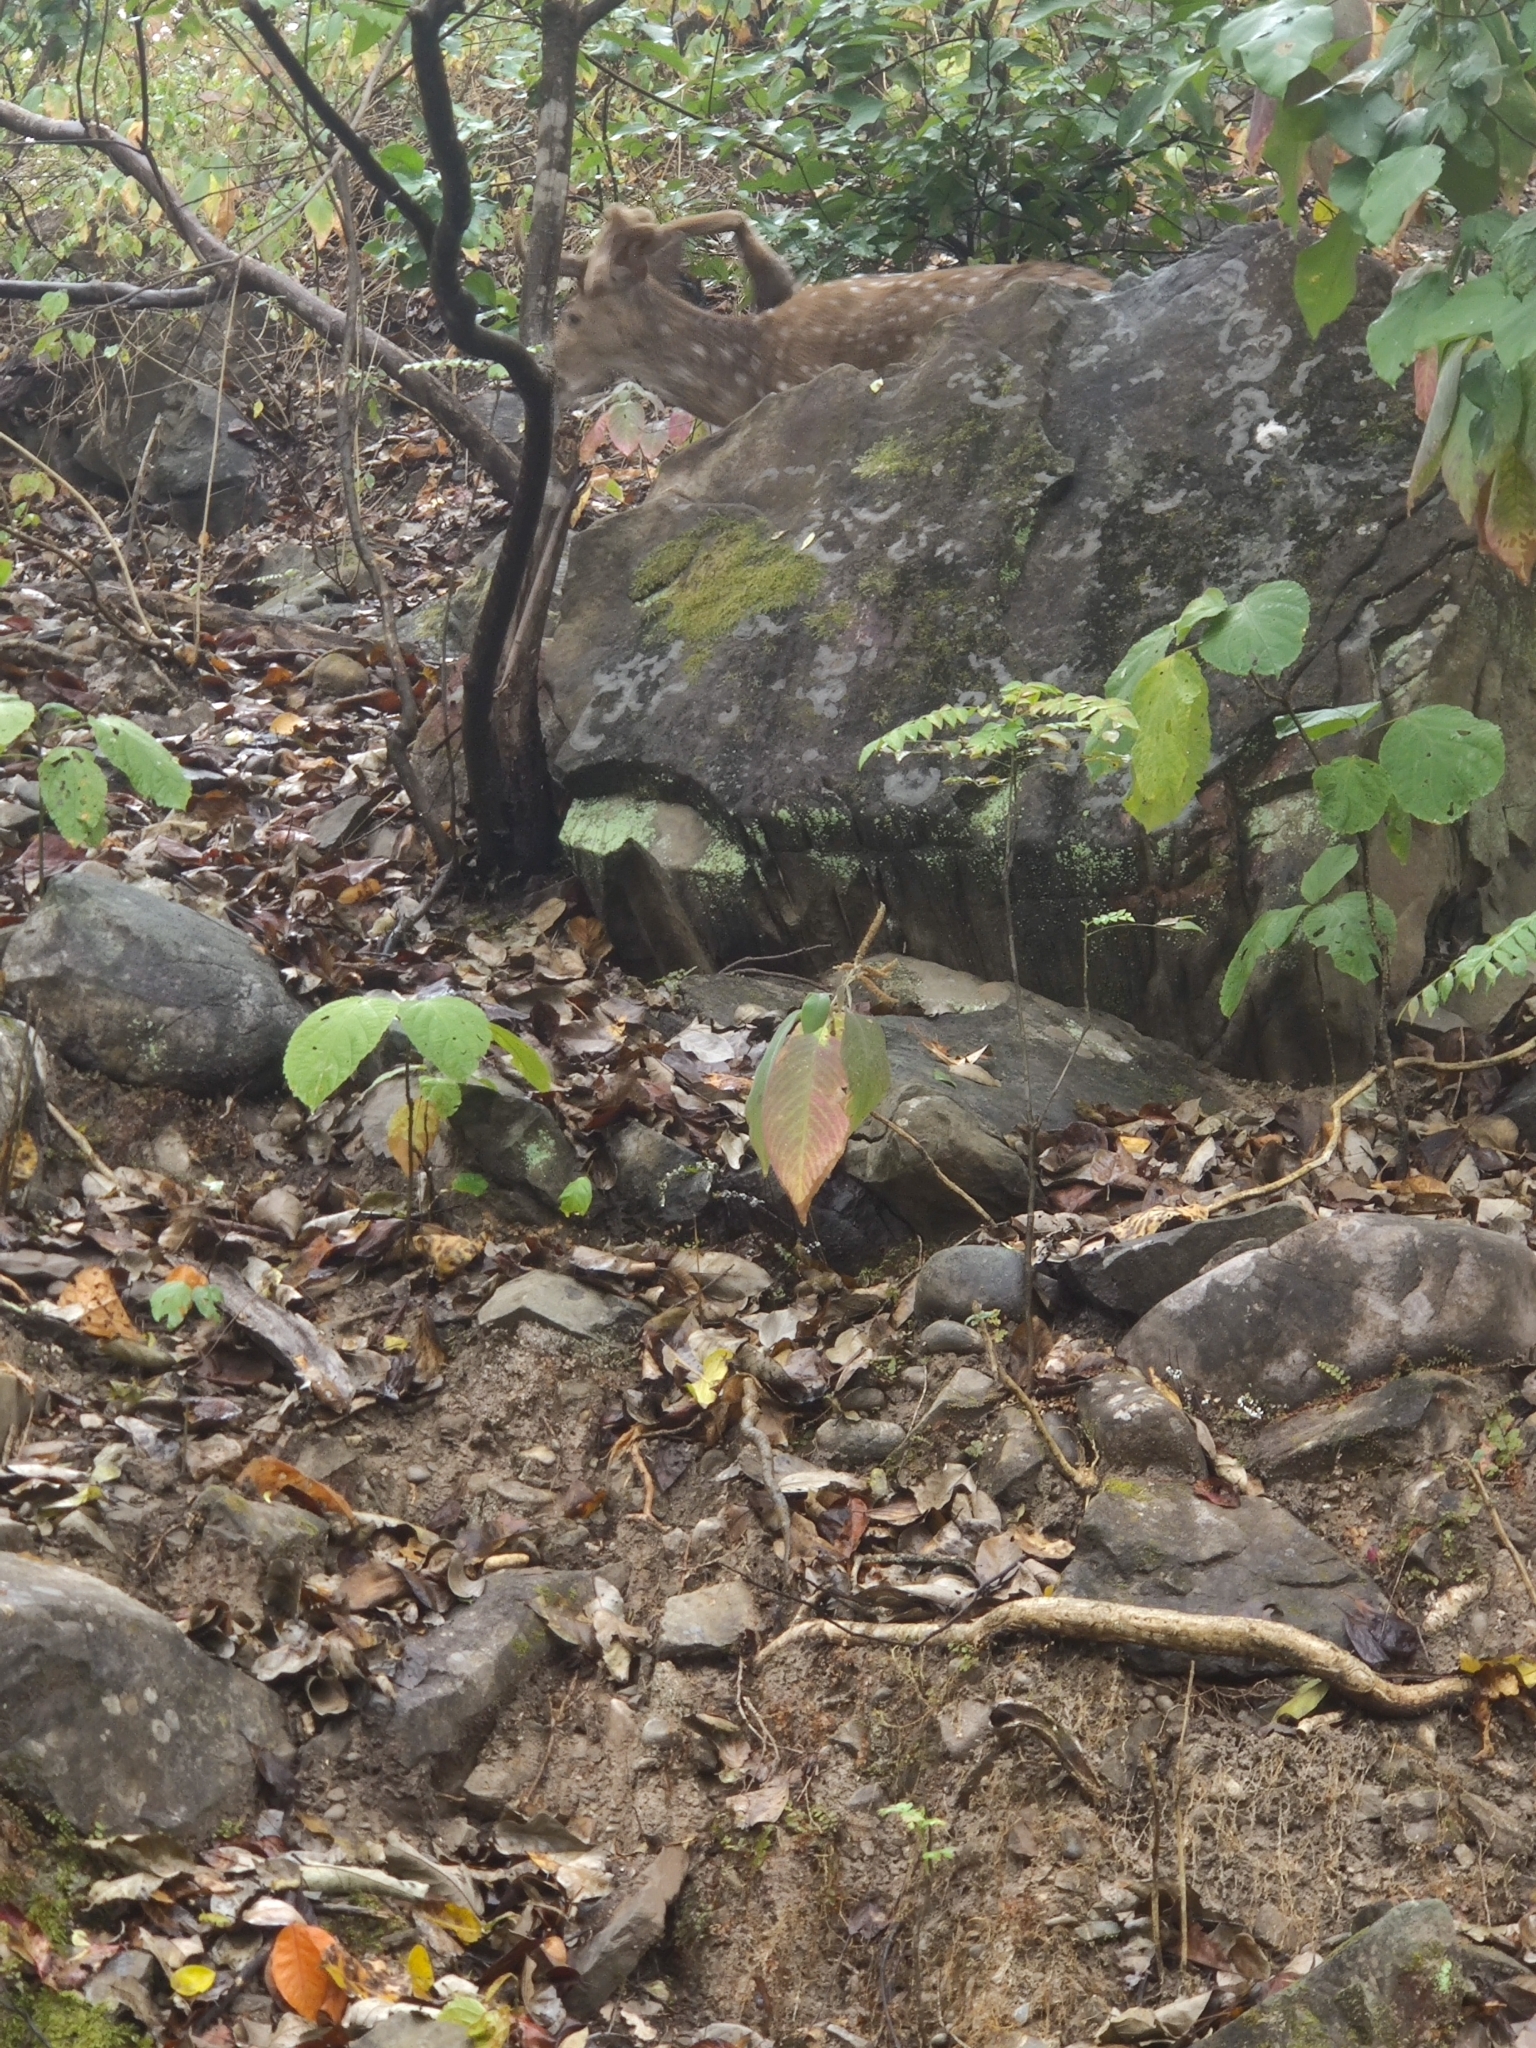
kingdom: Animalia
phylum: Chordata
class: Mammalia
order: Artiodactyla
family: Cervidae
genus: Axis
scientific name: Axis axis
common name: Chital
